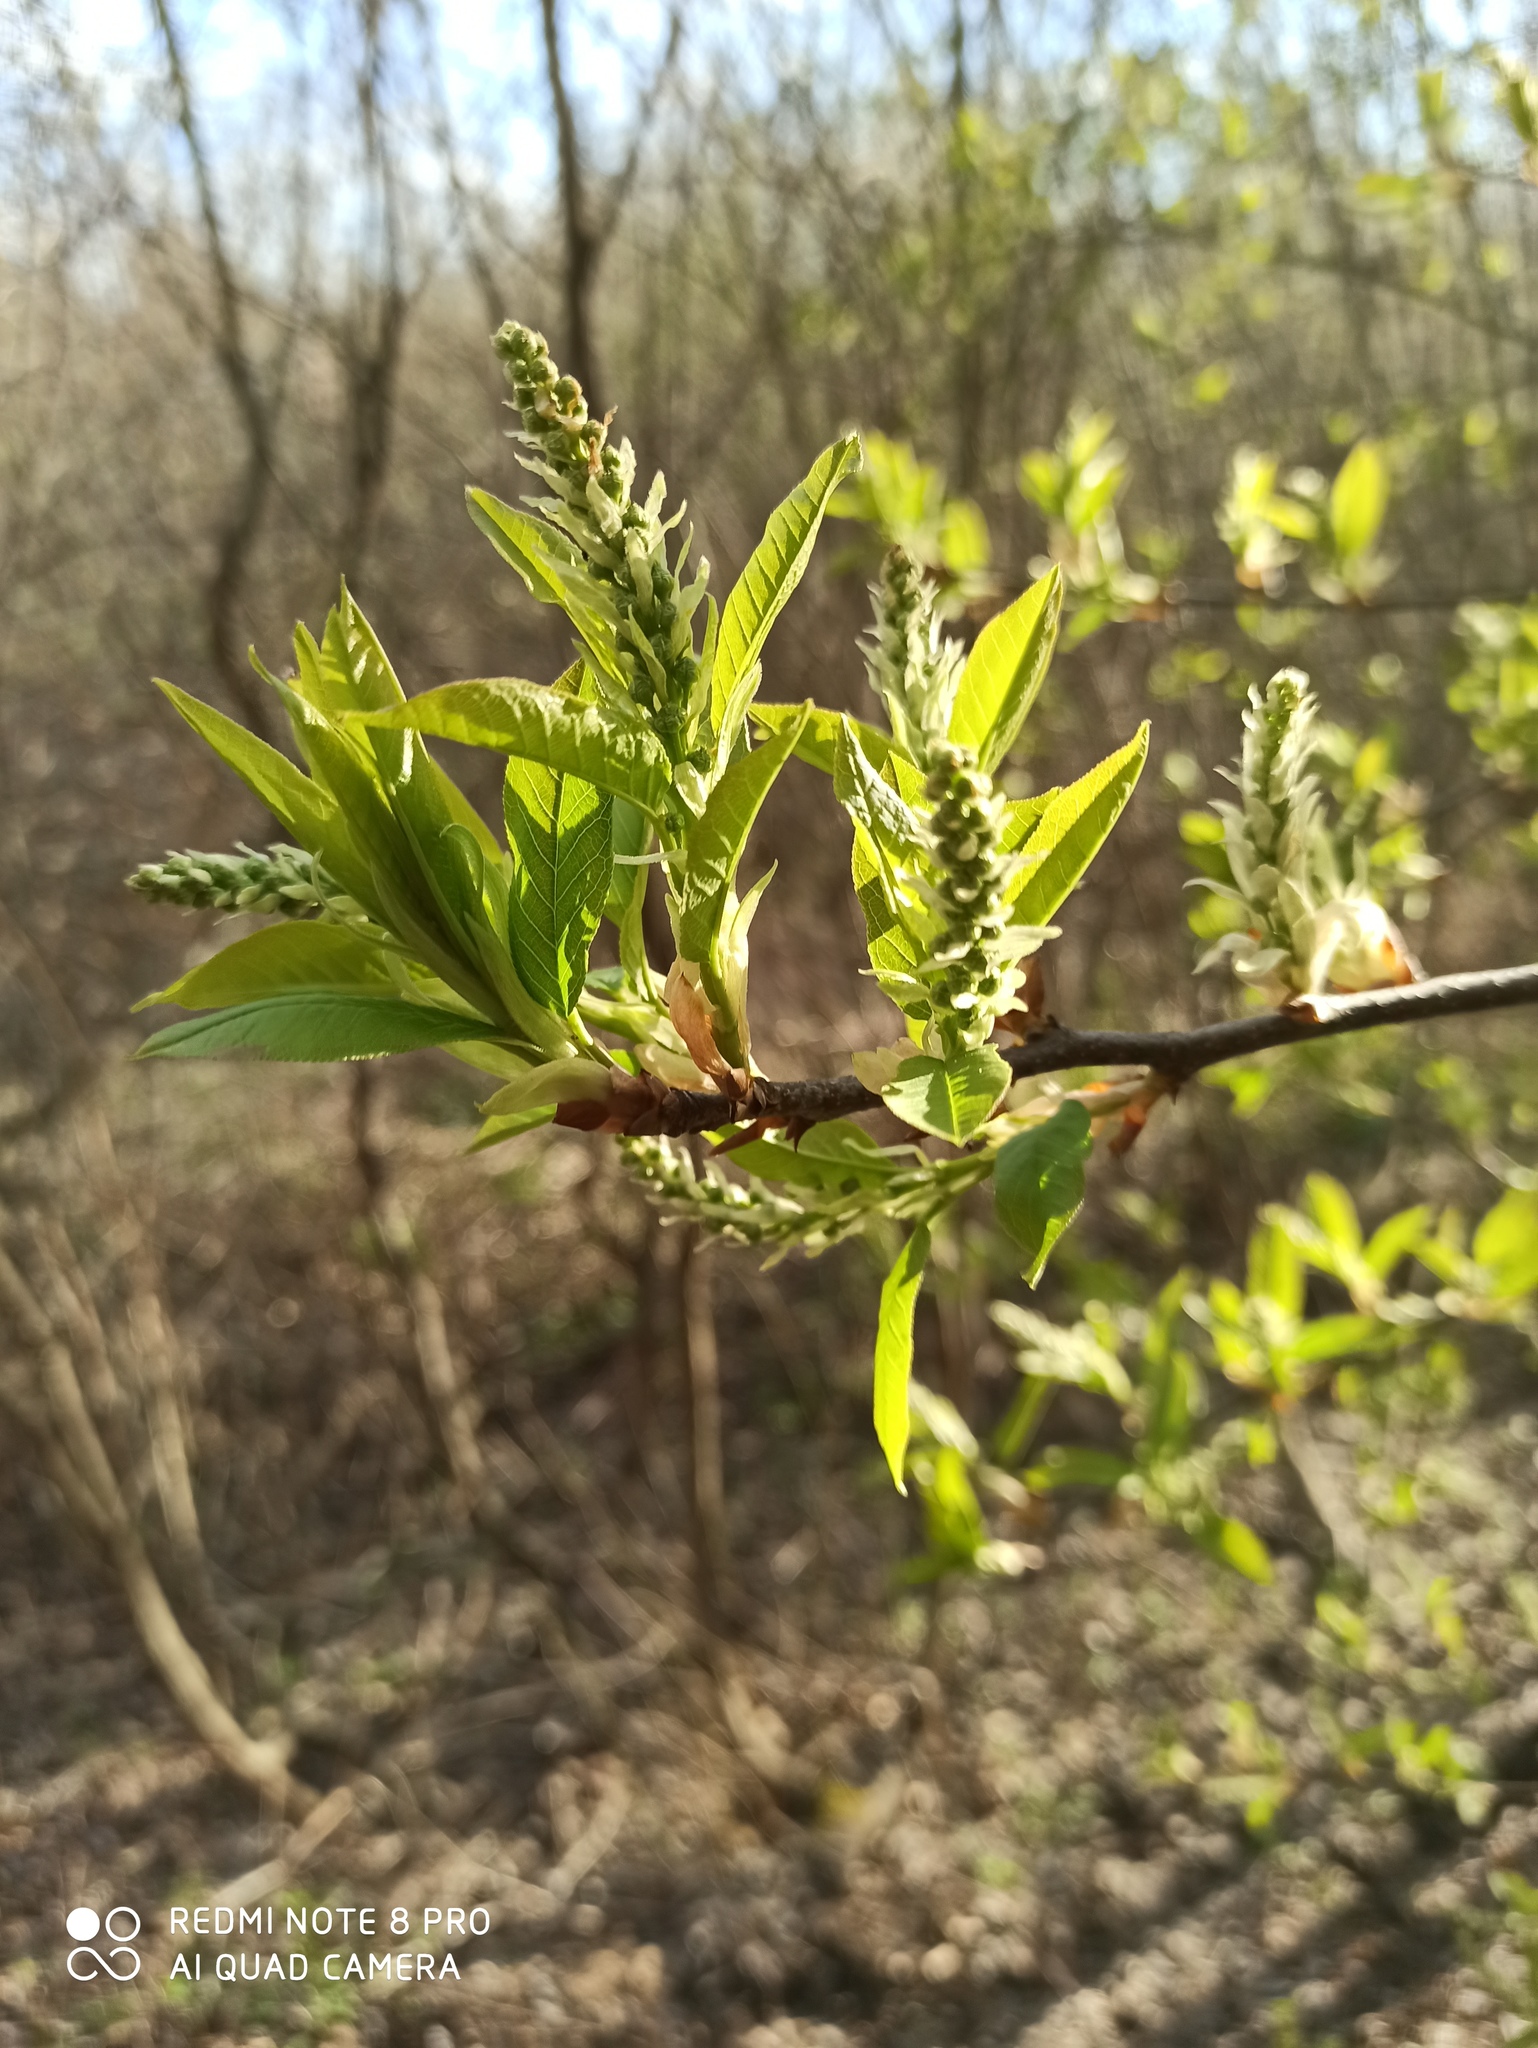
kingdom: Plantae
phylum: Tracheophyta
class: Magnoliopsida
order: Rosales
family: Rosaceae
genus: Prunus
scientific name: Prunus padus
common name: Bird cherry
